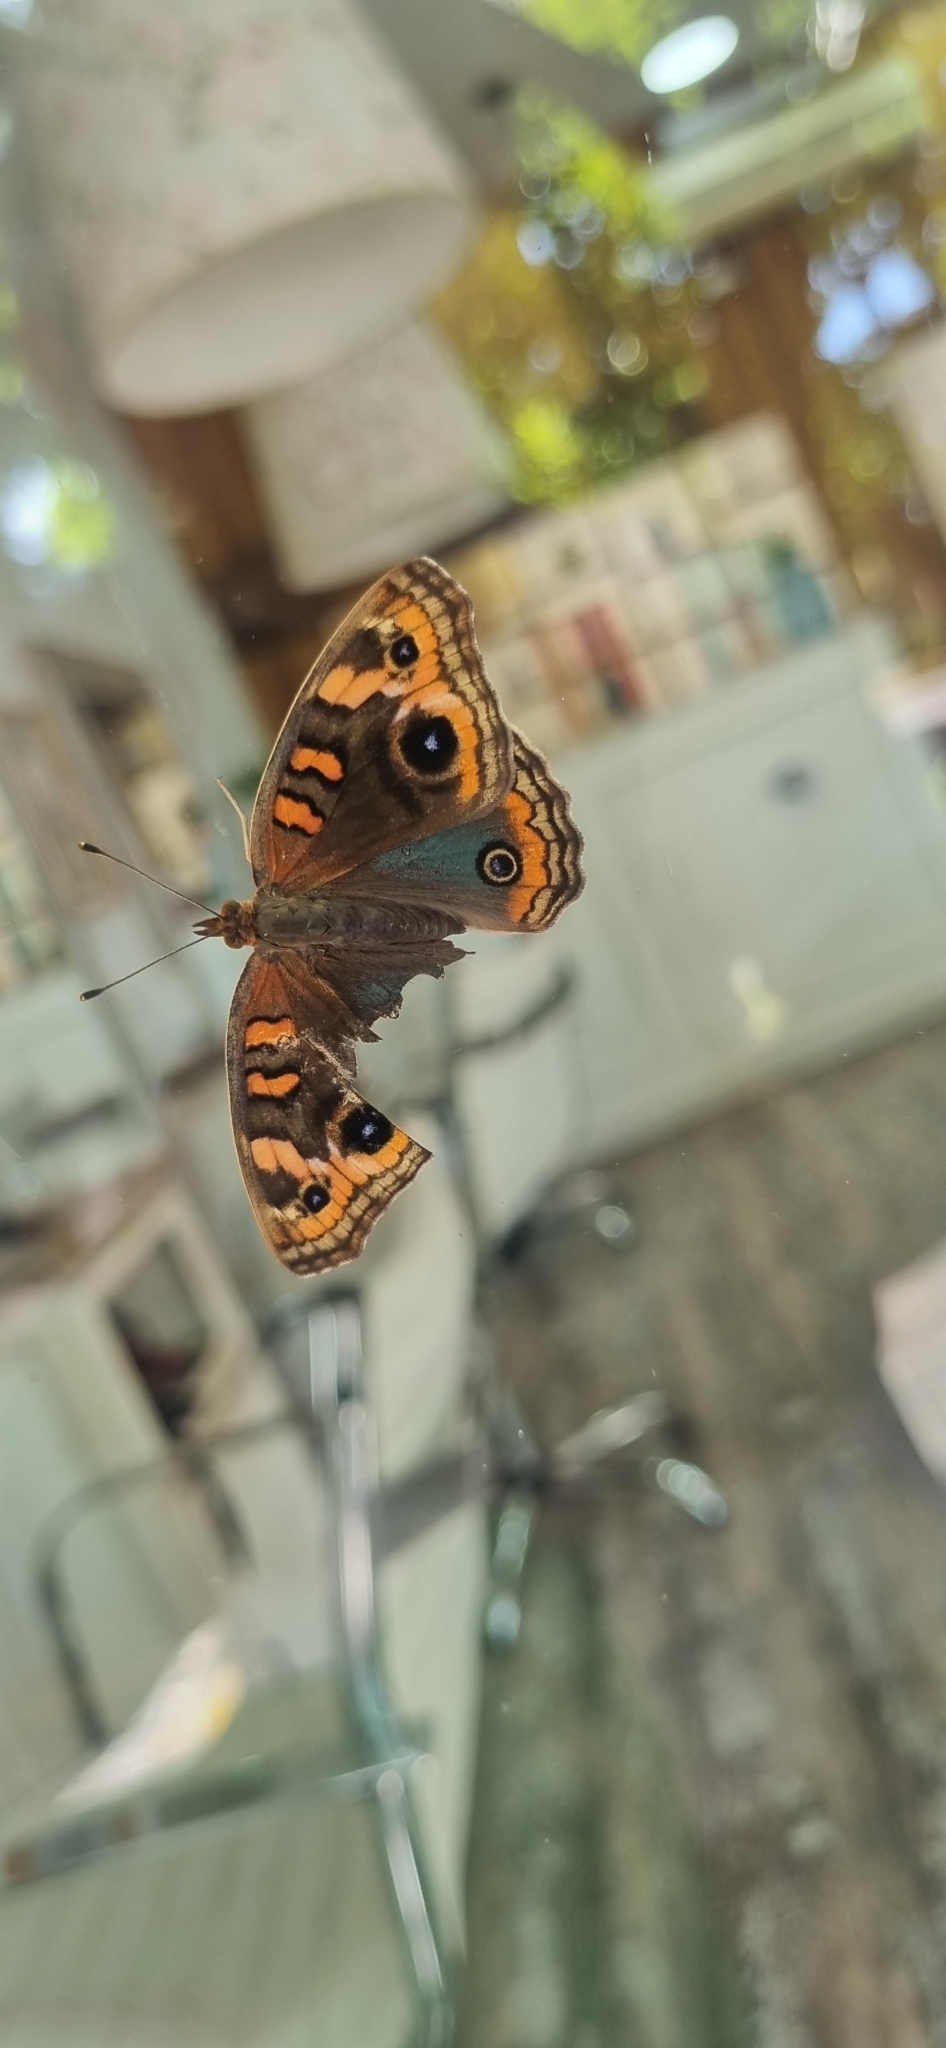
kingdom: Animalia
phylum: Arthropoda
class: Insecta
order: Lepidoptera
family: Nymphalidae
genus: Junonia
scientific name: Junonia lavinia
